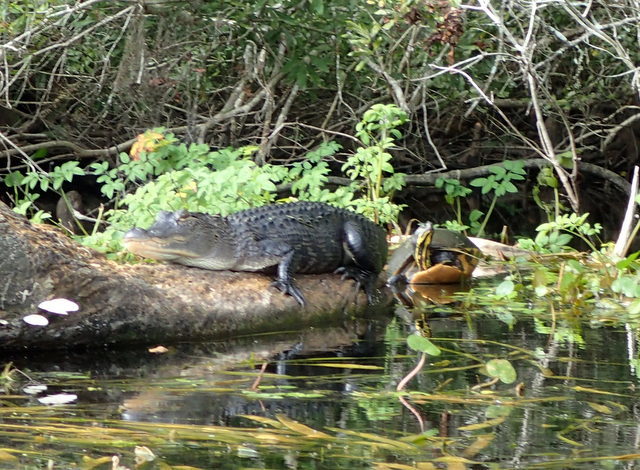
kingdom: Animalia
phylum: Chordata
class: Crocodylia
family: Alligatoridae
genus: Alligator
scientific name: Alligator mississippiensis
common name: American alligator
